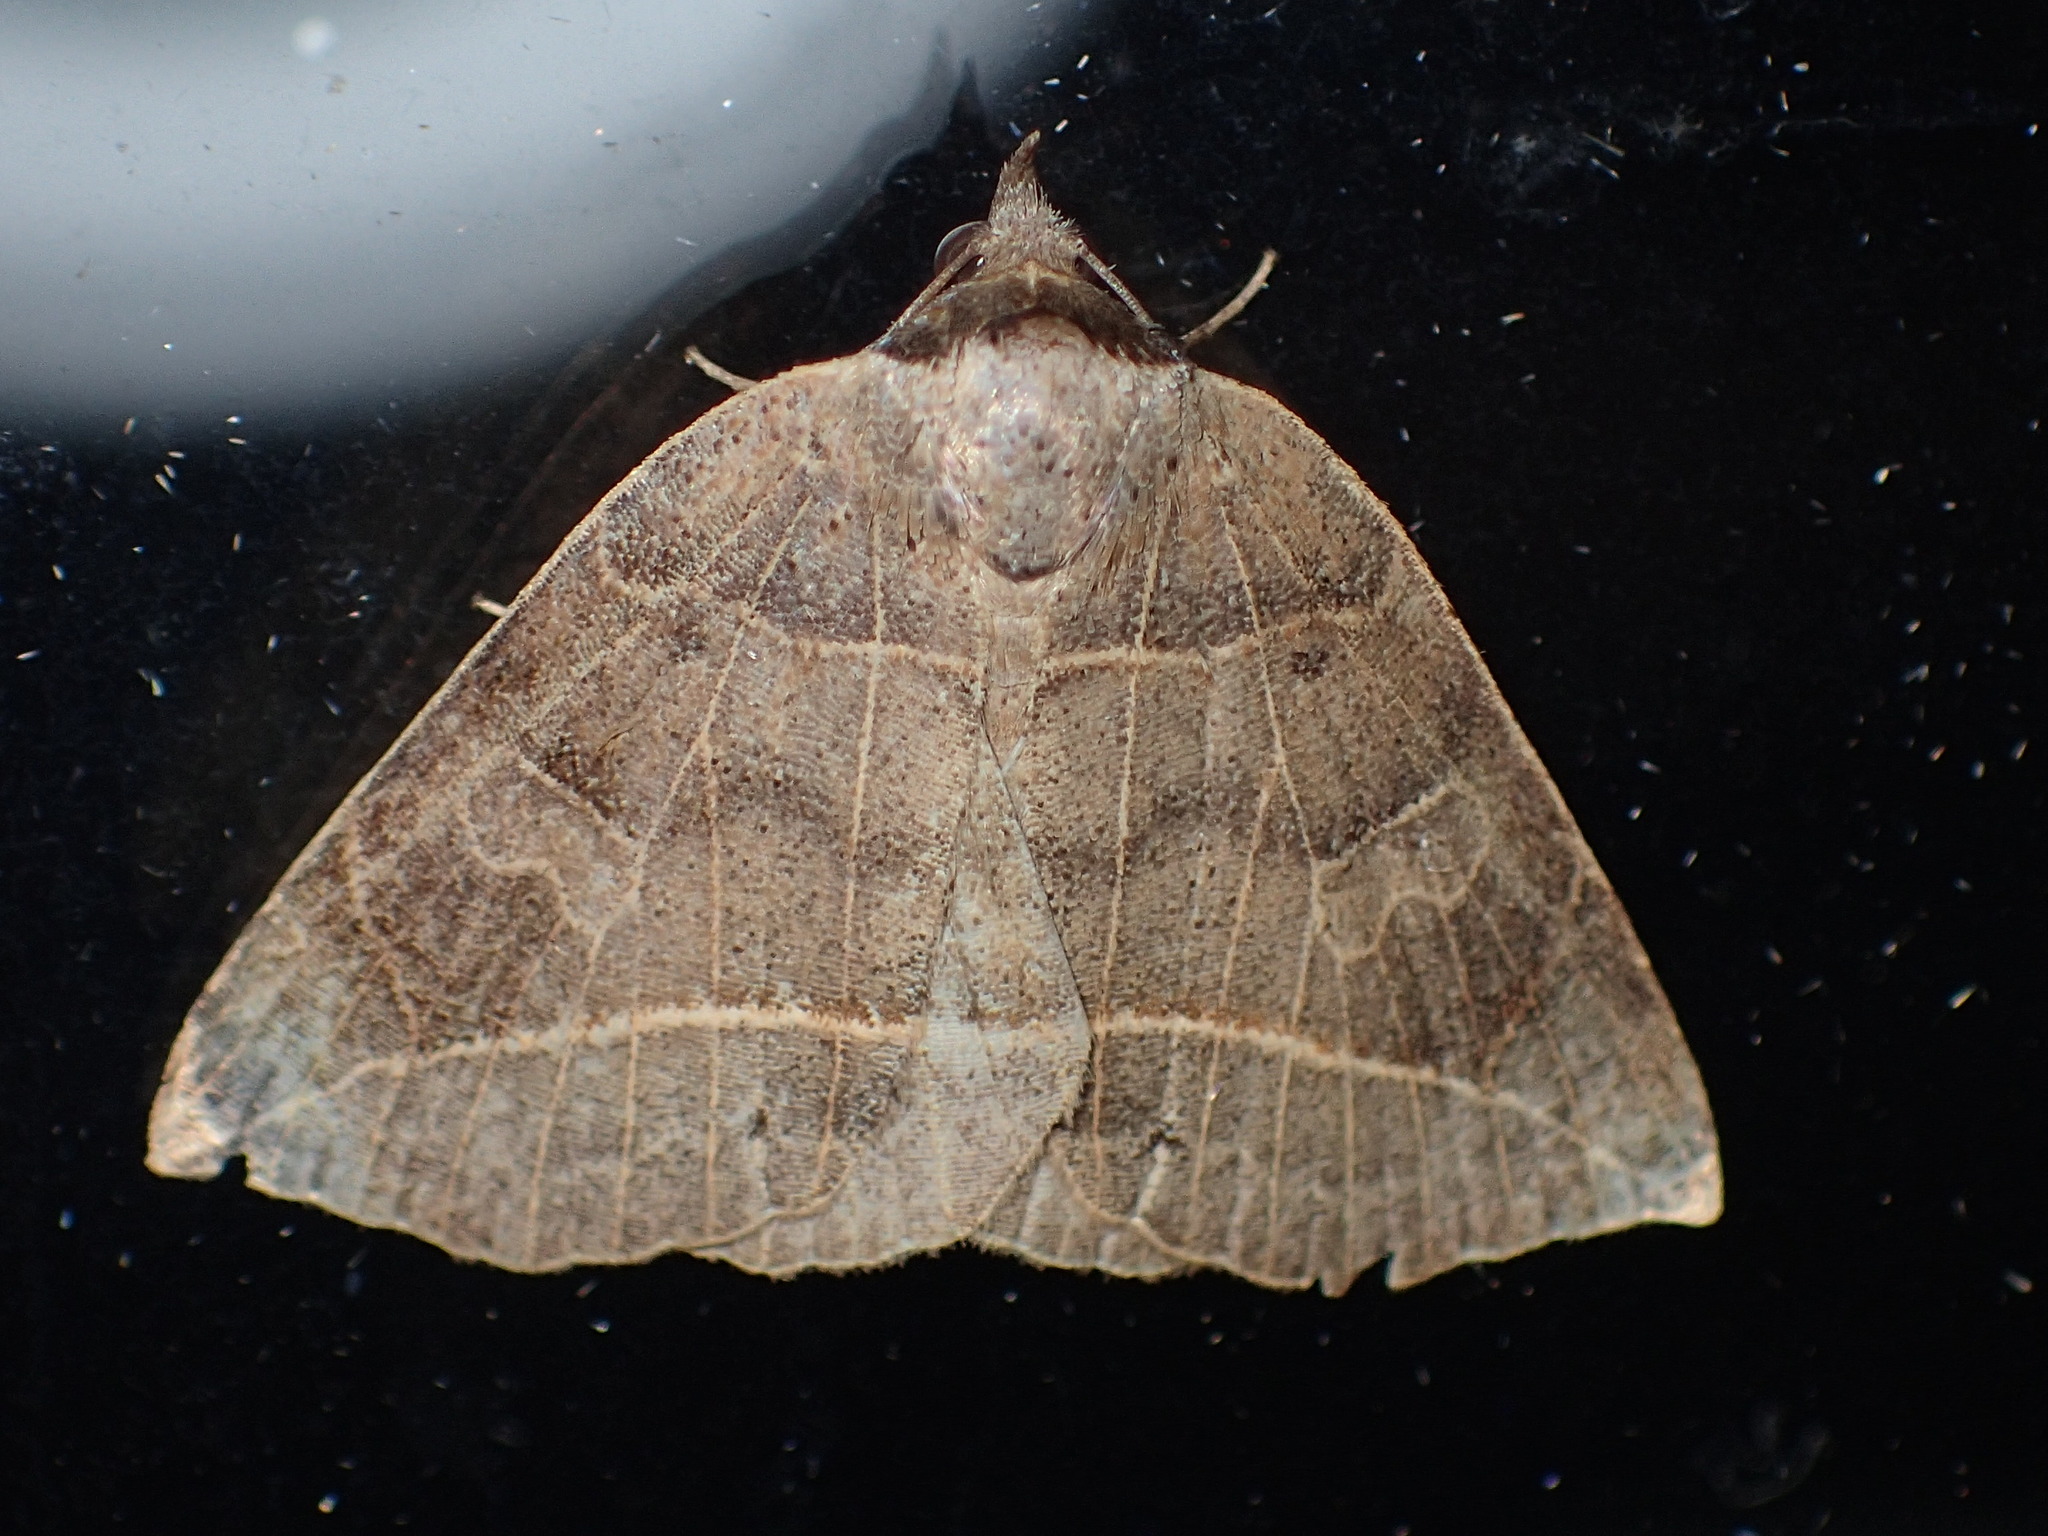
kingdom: Animalia
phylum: Arthropoda
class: Insecta
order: Lepidoptera
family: Erebidae
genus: Isogona
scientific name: Isogona tenuis
